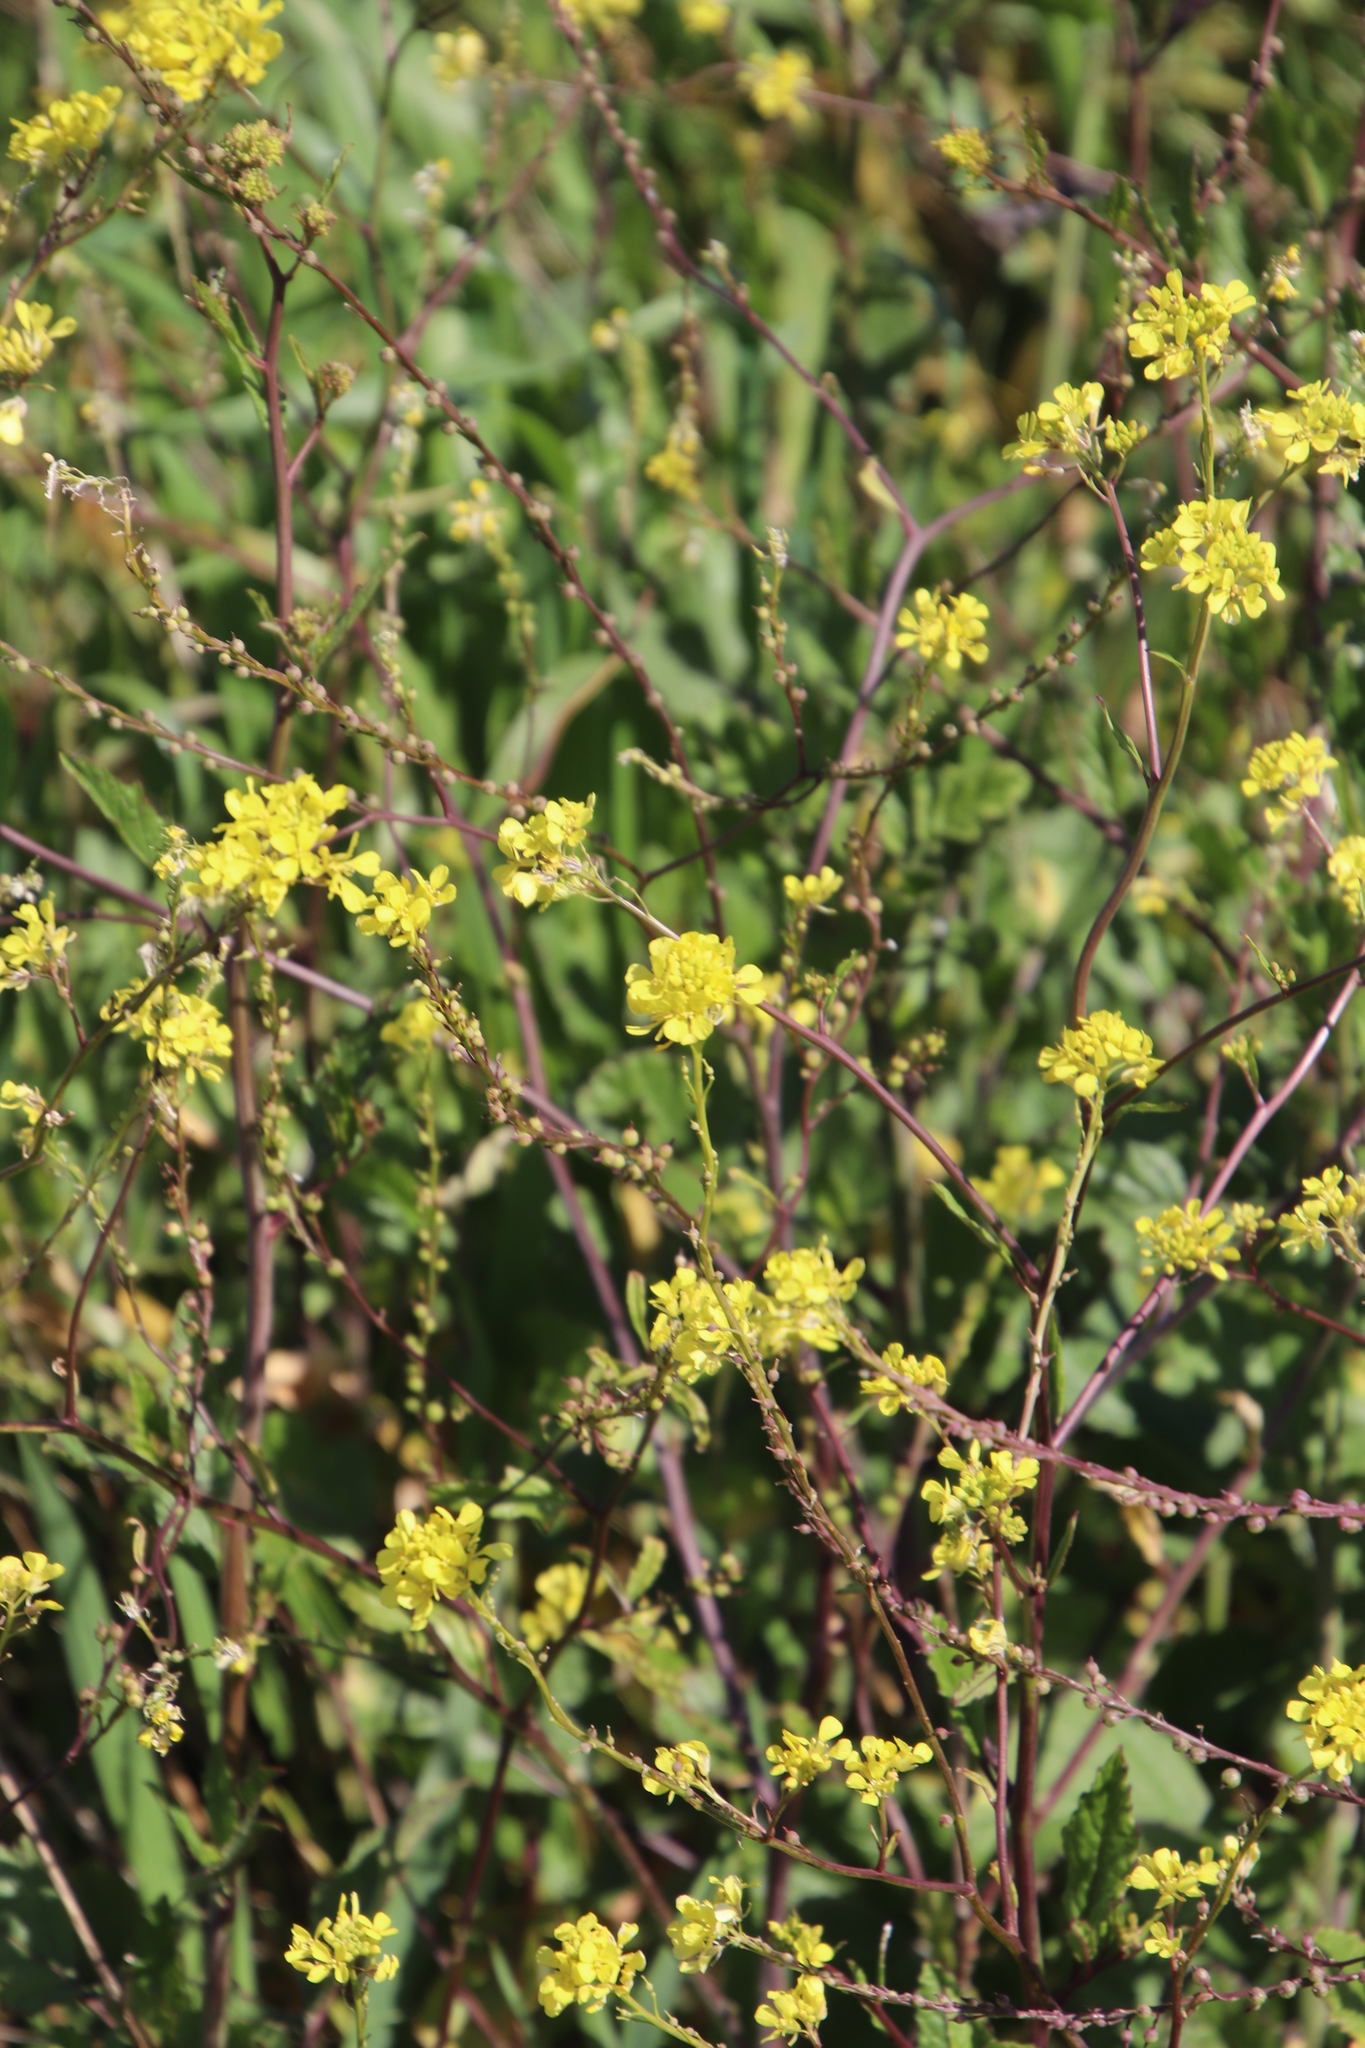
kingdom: Plantae
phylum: Tracheophyta
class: Magnoliopsida
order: Brassicales
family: Brassicaceae
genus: Rapistrum
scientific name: Rapistrum rugosum
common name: Annual bastardcabbage
